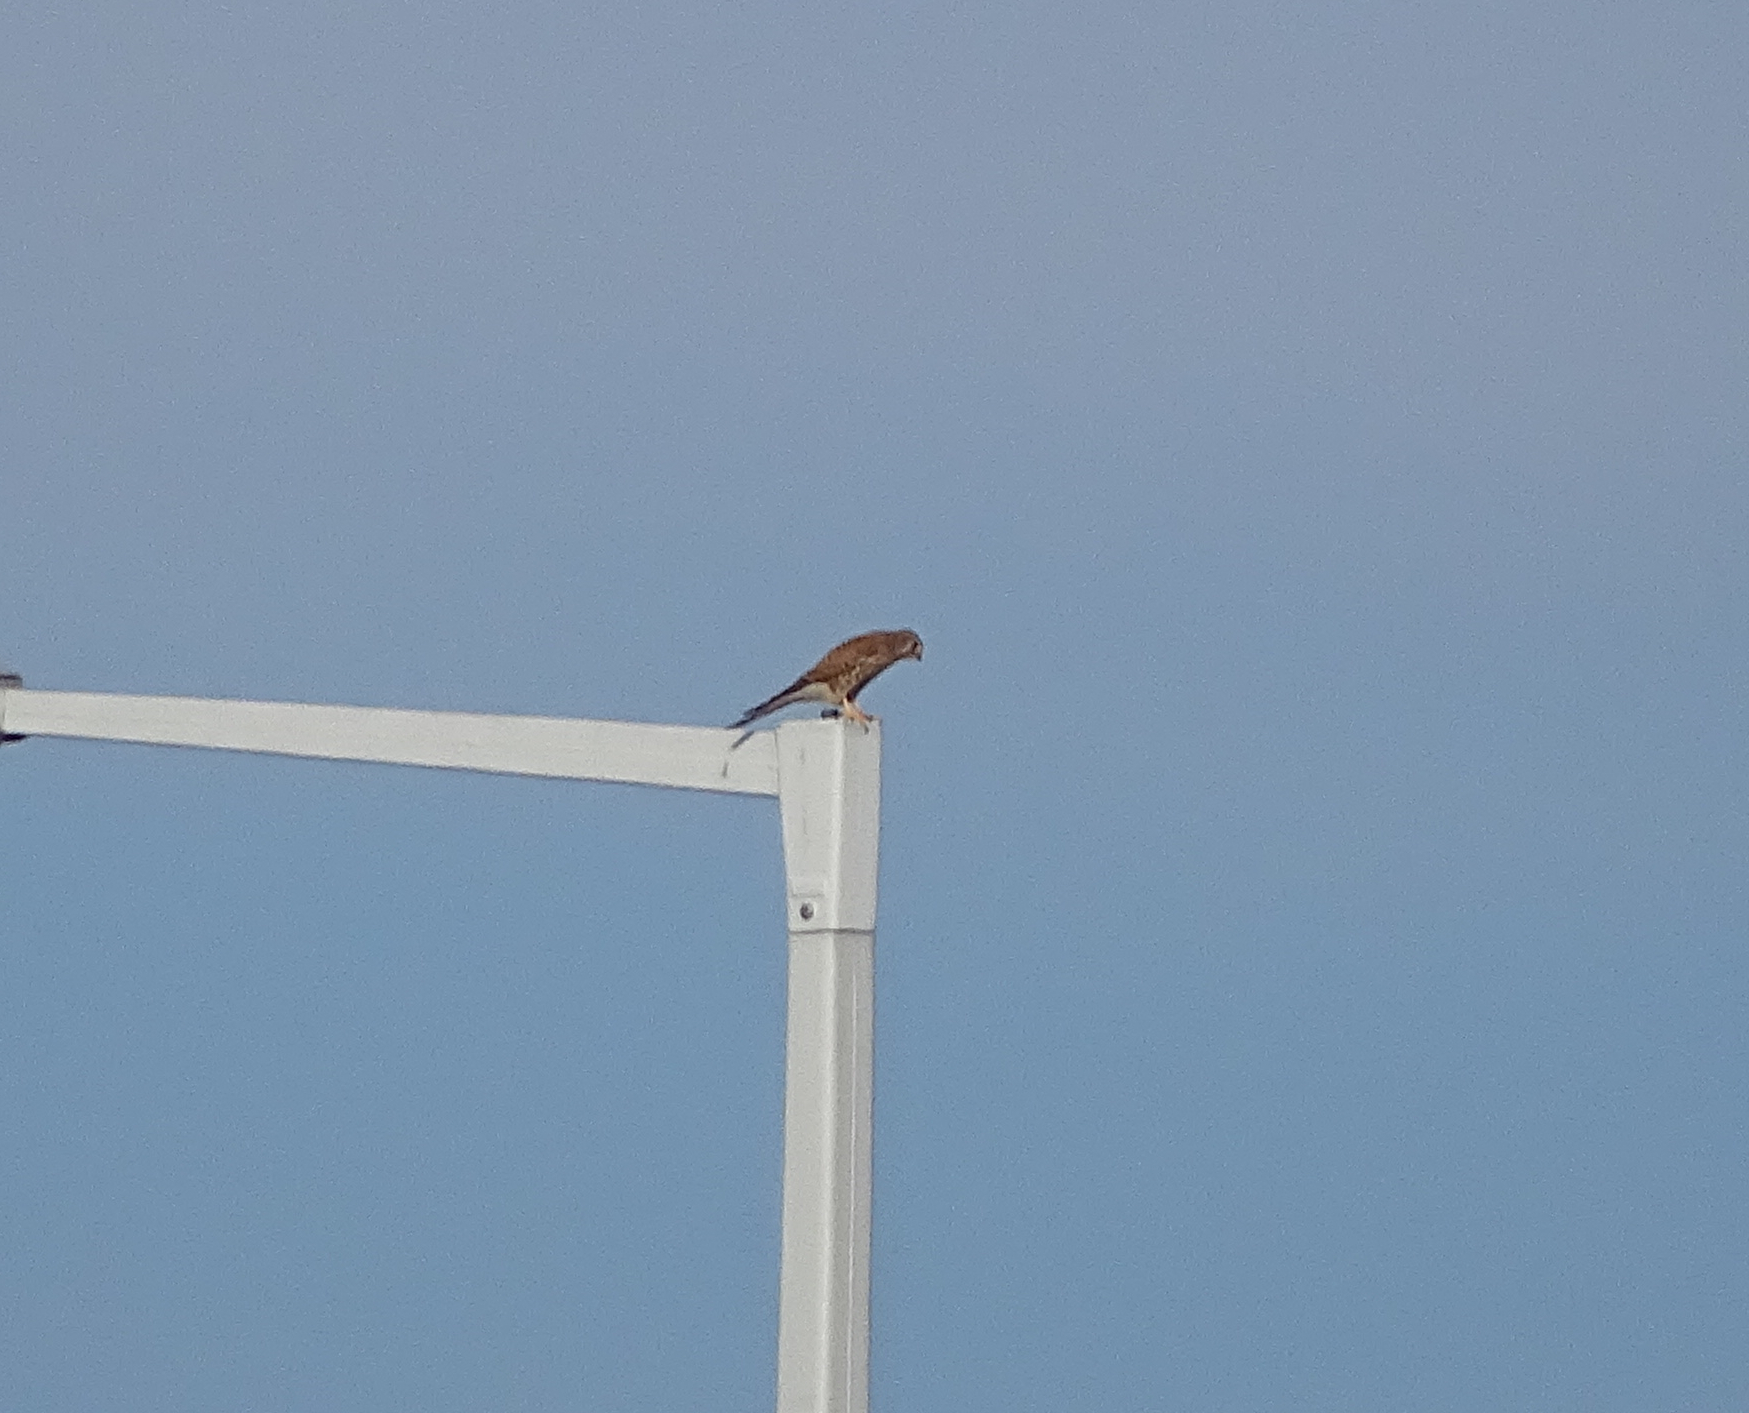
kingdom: Animalia
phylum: Chordata
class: Aves
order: Falconiformes
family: Falconidae
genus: Falco
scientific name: Falco tinnunculus
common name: Common kestrel
